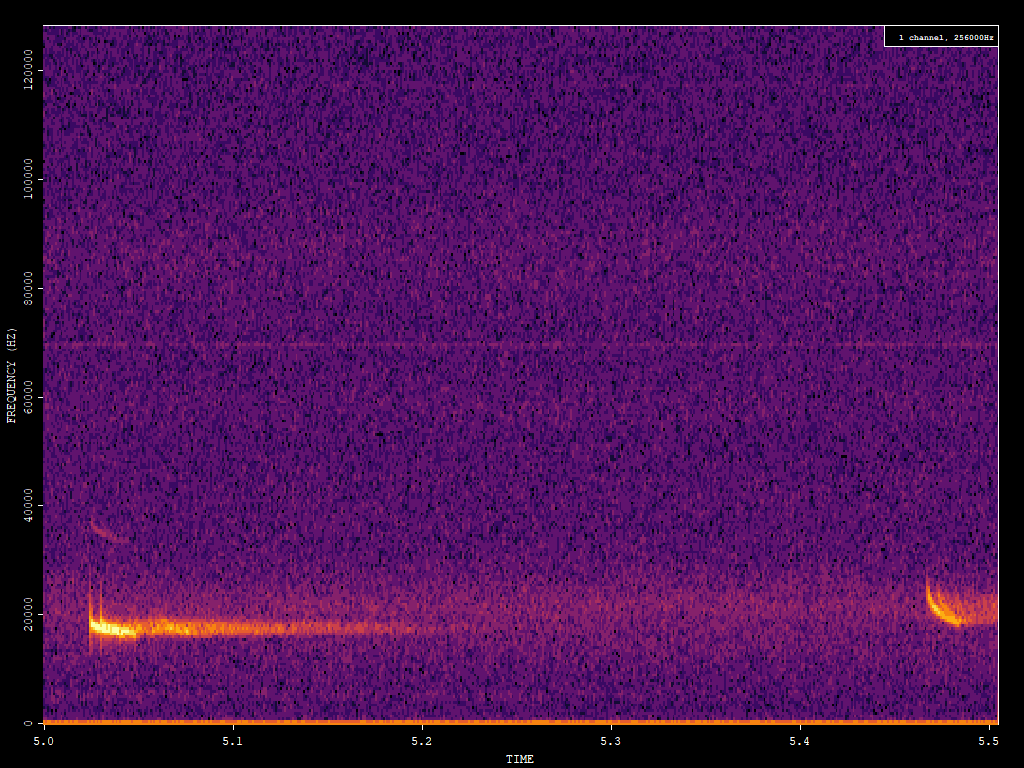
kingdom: Animalia
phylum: Chordata
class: Mammalia
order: Chiroptera
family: Vespertilionidae
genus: Nyctalus
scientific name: Nyctalus noctula
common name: Noctule
